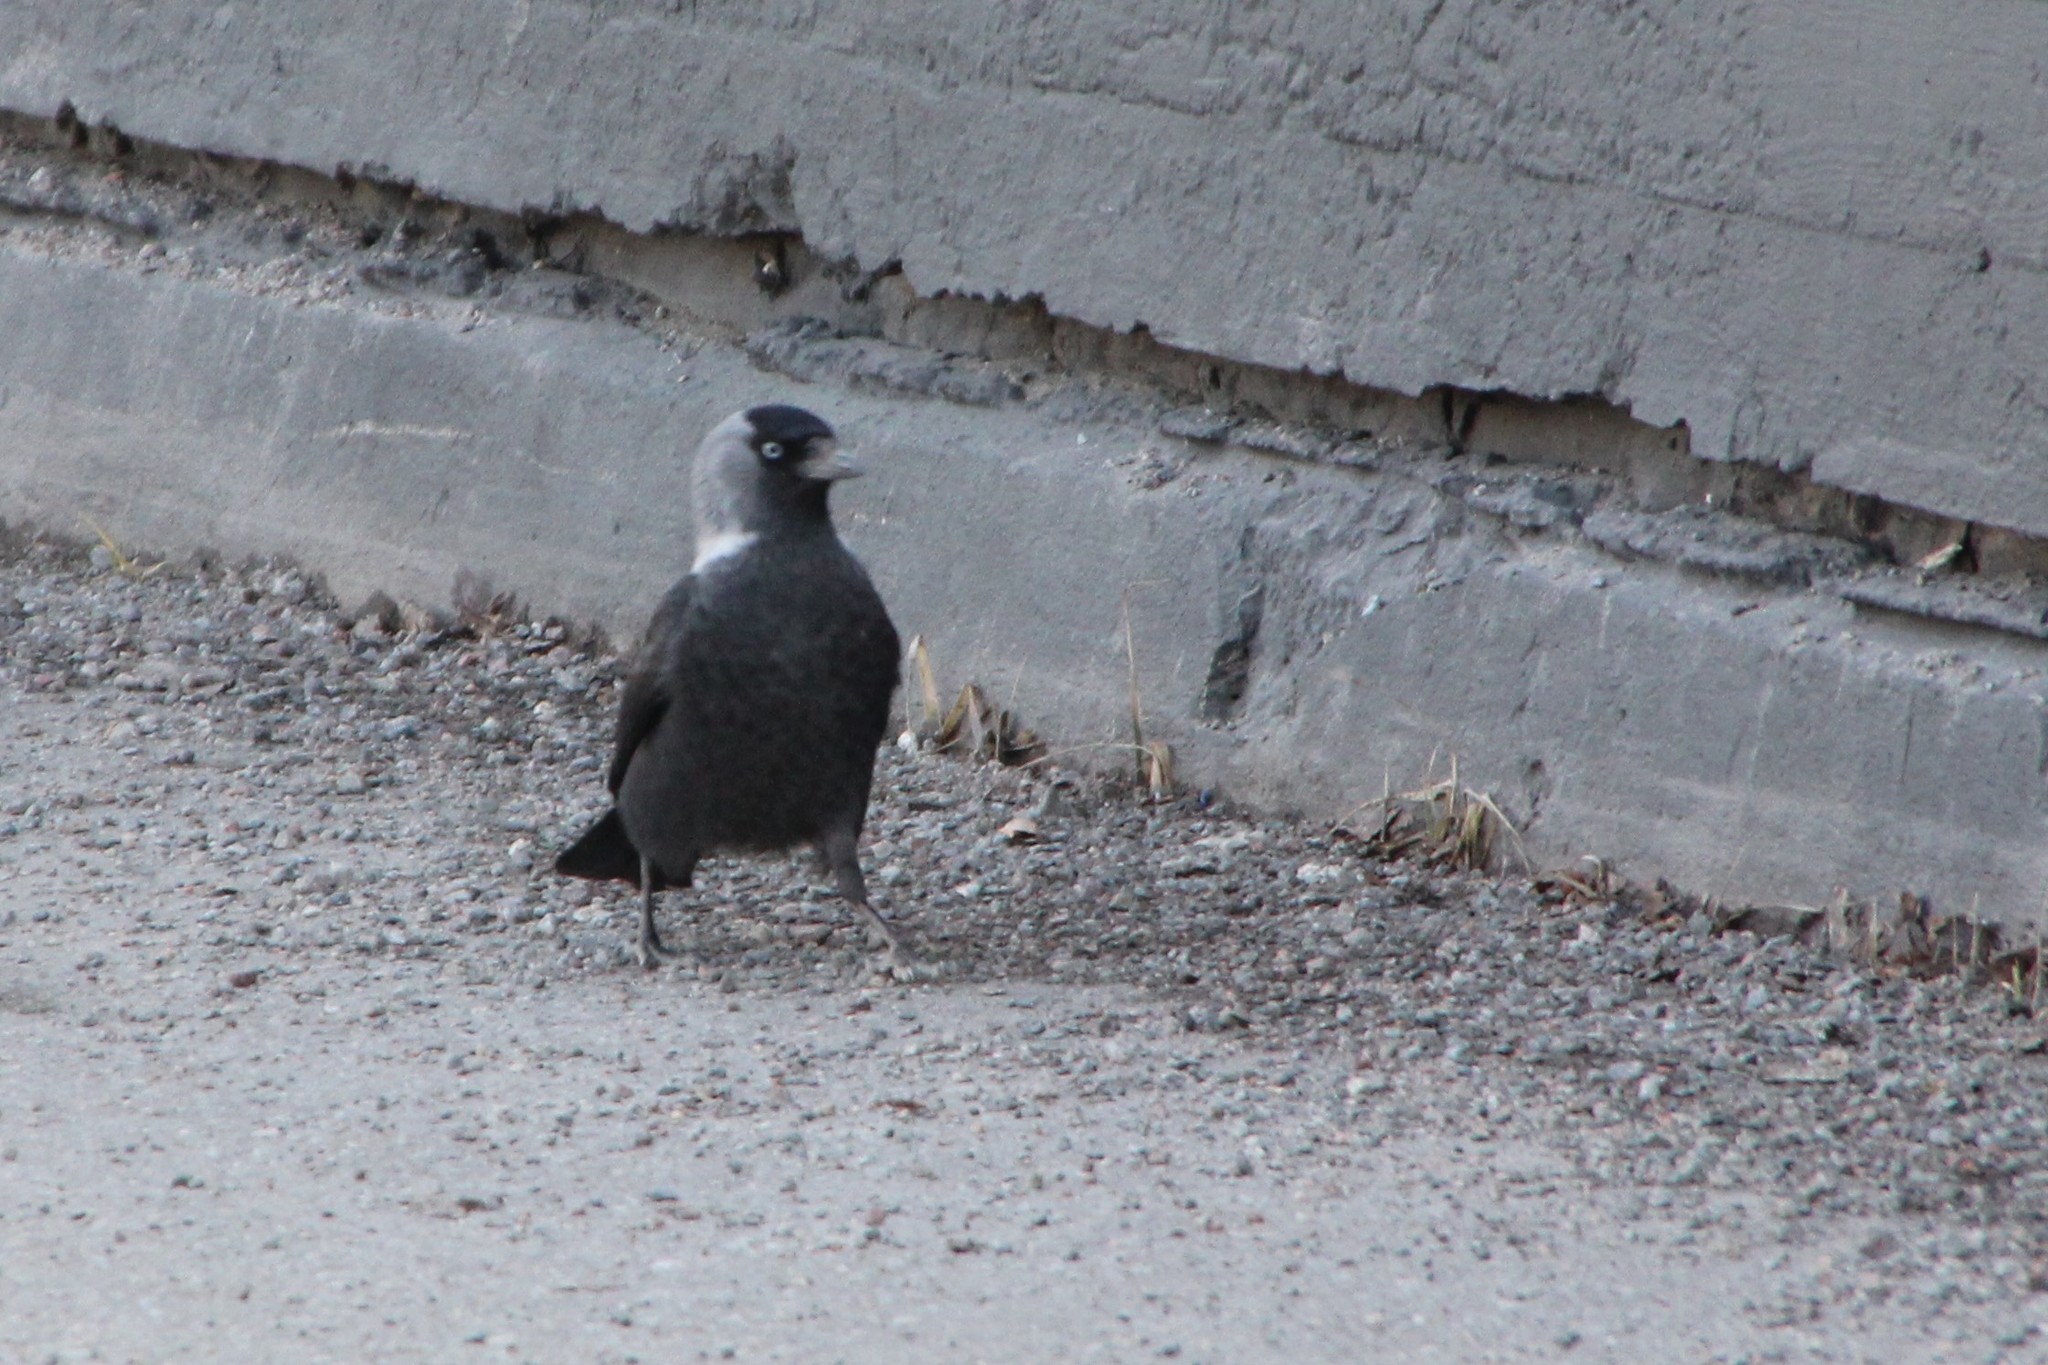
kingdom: Animalia
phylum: Chordata
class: Aves
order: Passeriformes
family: Corvidae
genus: Coloeus
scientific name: Coloeus monedula
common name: Western jackdaw
